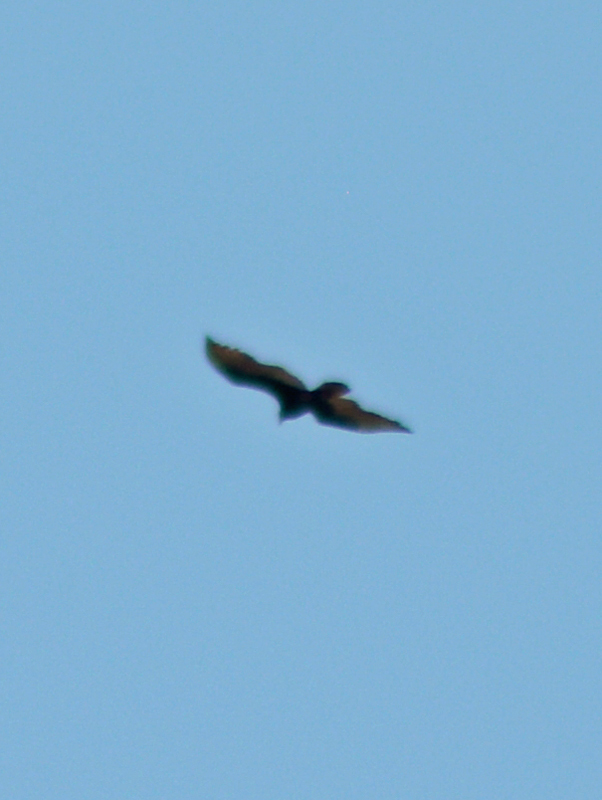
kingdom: Animalia
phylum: Chordata
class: Aves
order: Accipitriformes
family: Cathartidae
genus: Cathartes
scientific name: Cathartes aura
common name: Turkey vulture
